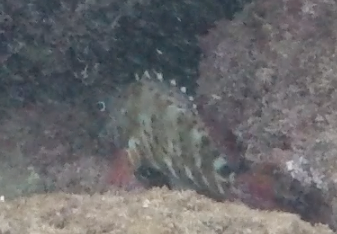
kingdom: Animalia
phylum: Chordata
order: Perciformes
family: Cirrhitidae
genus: Cirrhitus
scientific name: Cirrhitus pinnulatus
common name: Stocky hawkfish
